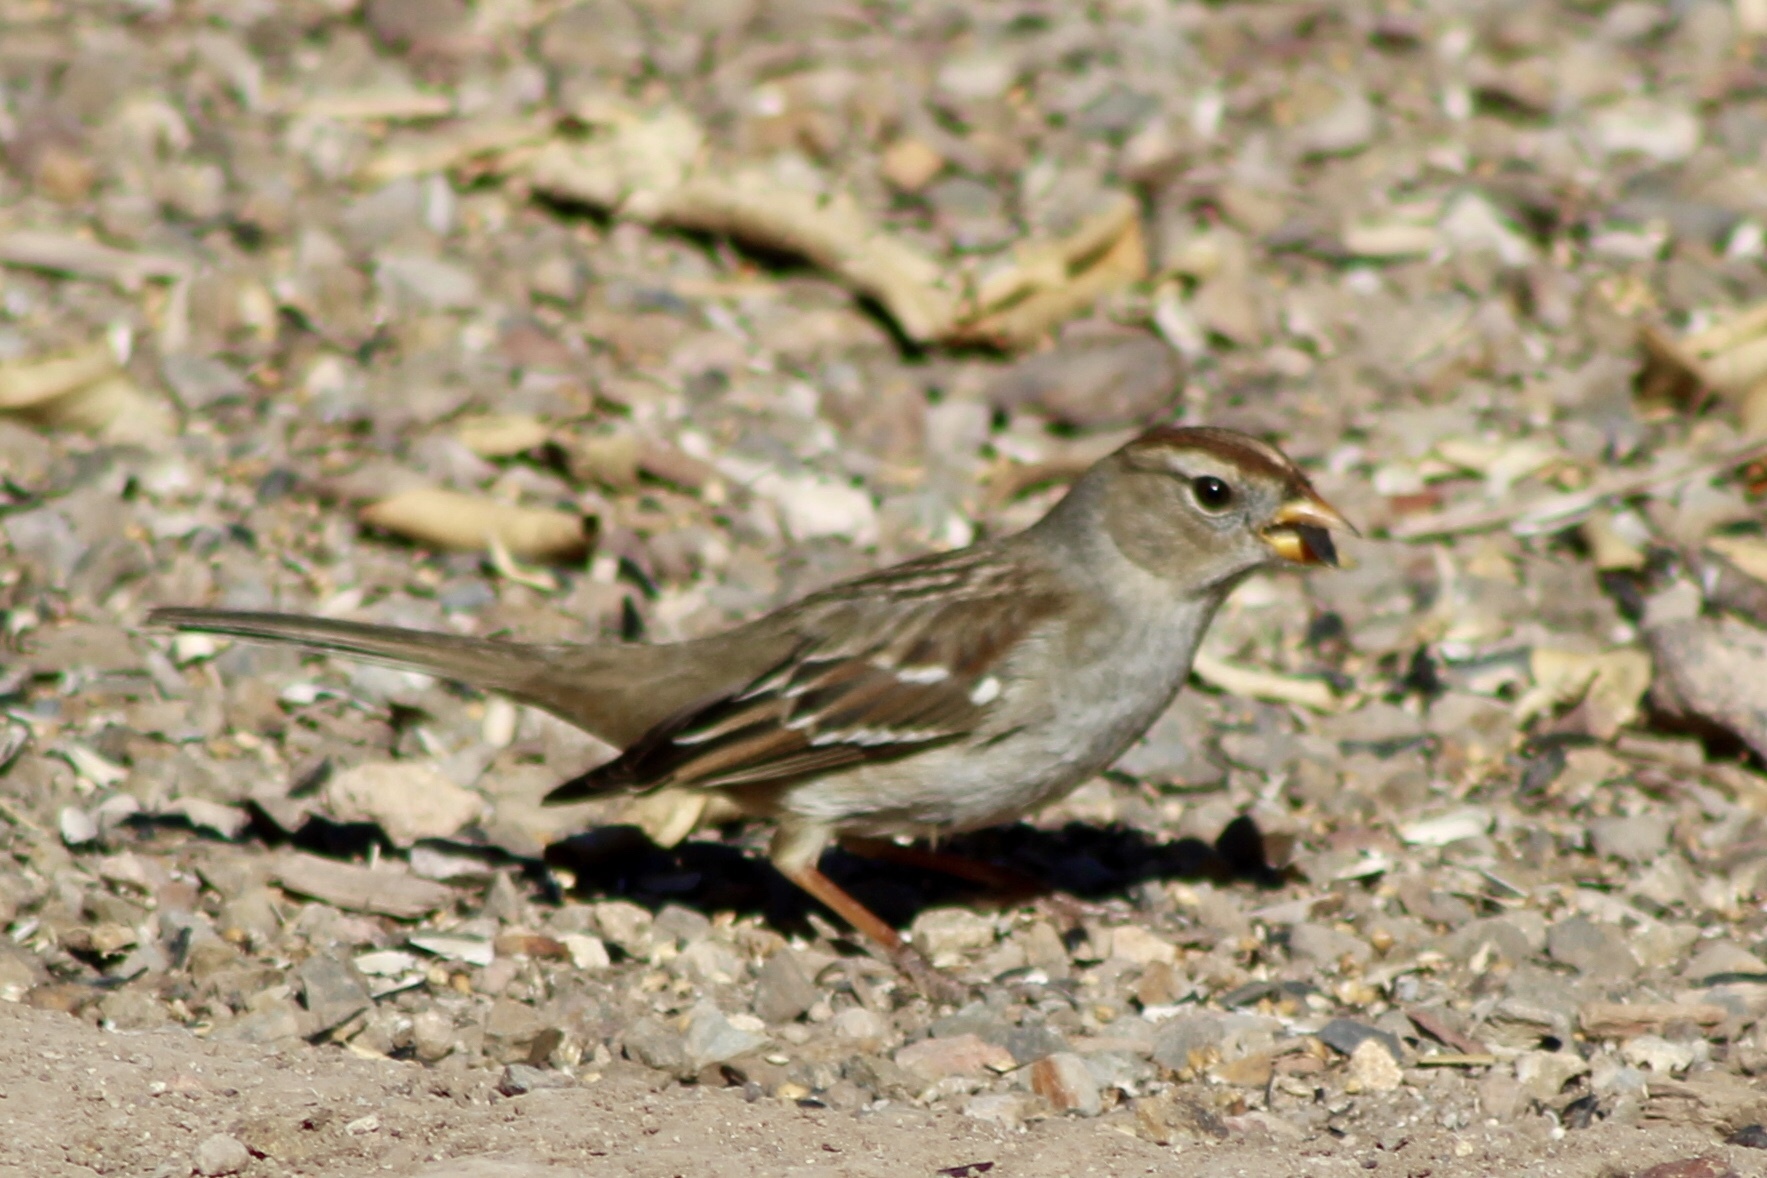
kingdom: Animalia
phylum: Chordata
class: Aves
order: Passeriformes
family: Passerellidae
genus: Zonotrichia
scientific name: Zonotrichia leucophrys
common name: White-crowned sparrow
